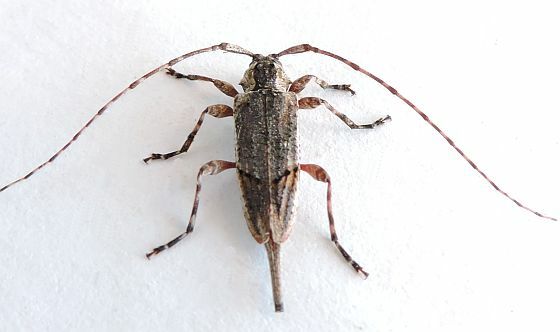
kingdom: Animalia
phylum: Arthropoda
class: Insecta
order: Coleoptera
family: Cerambycidae
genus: Trichocanonura
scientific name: Trichocanonura linearis
